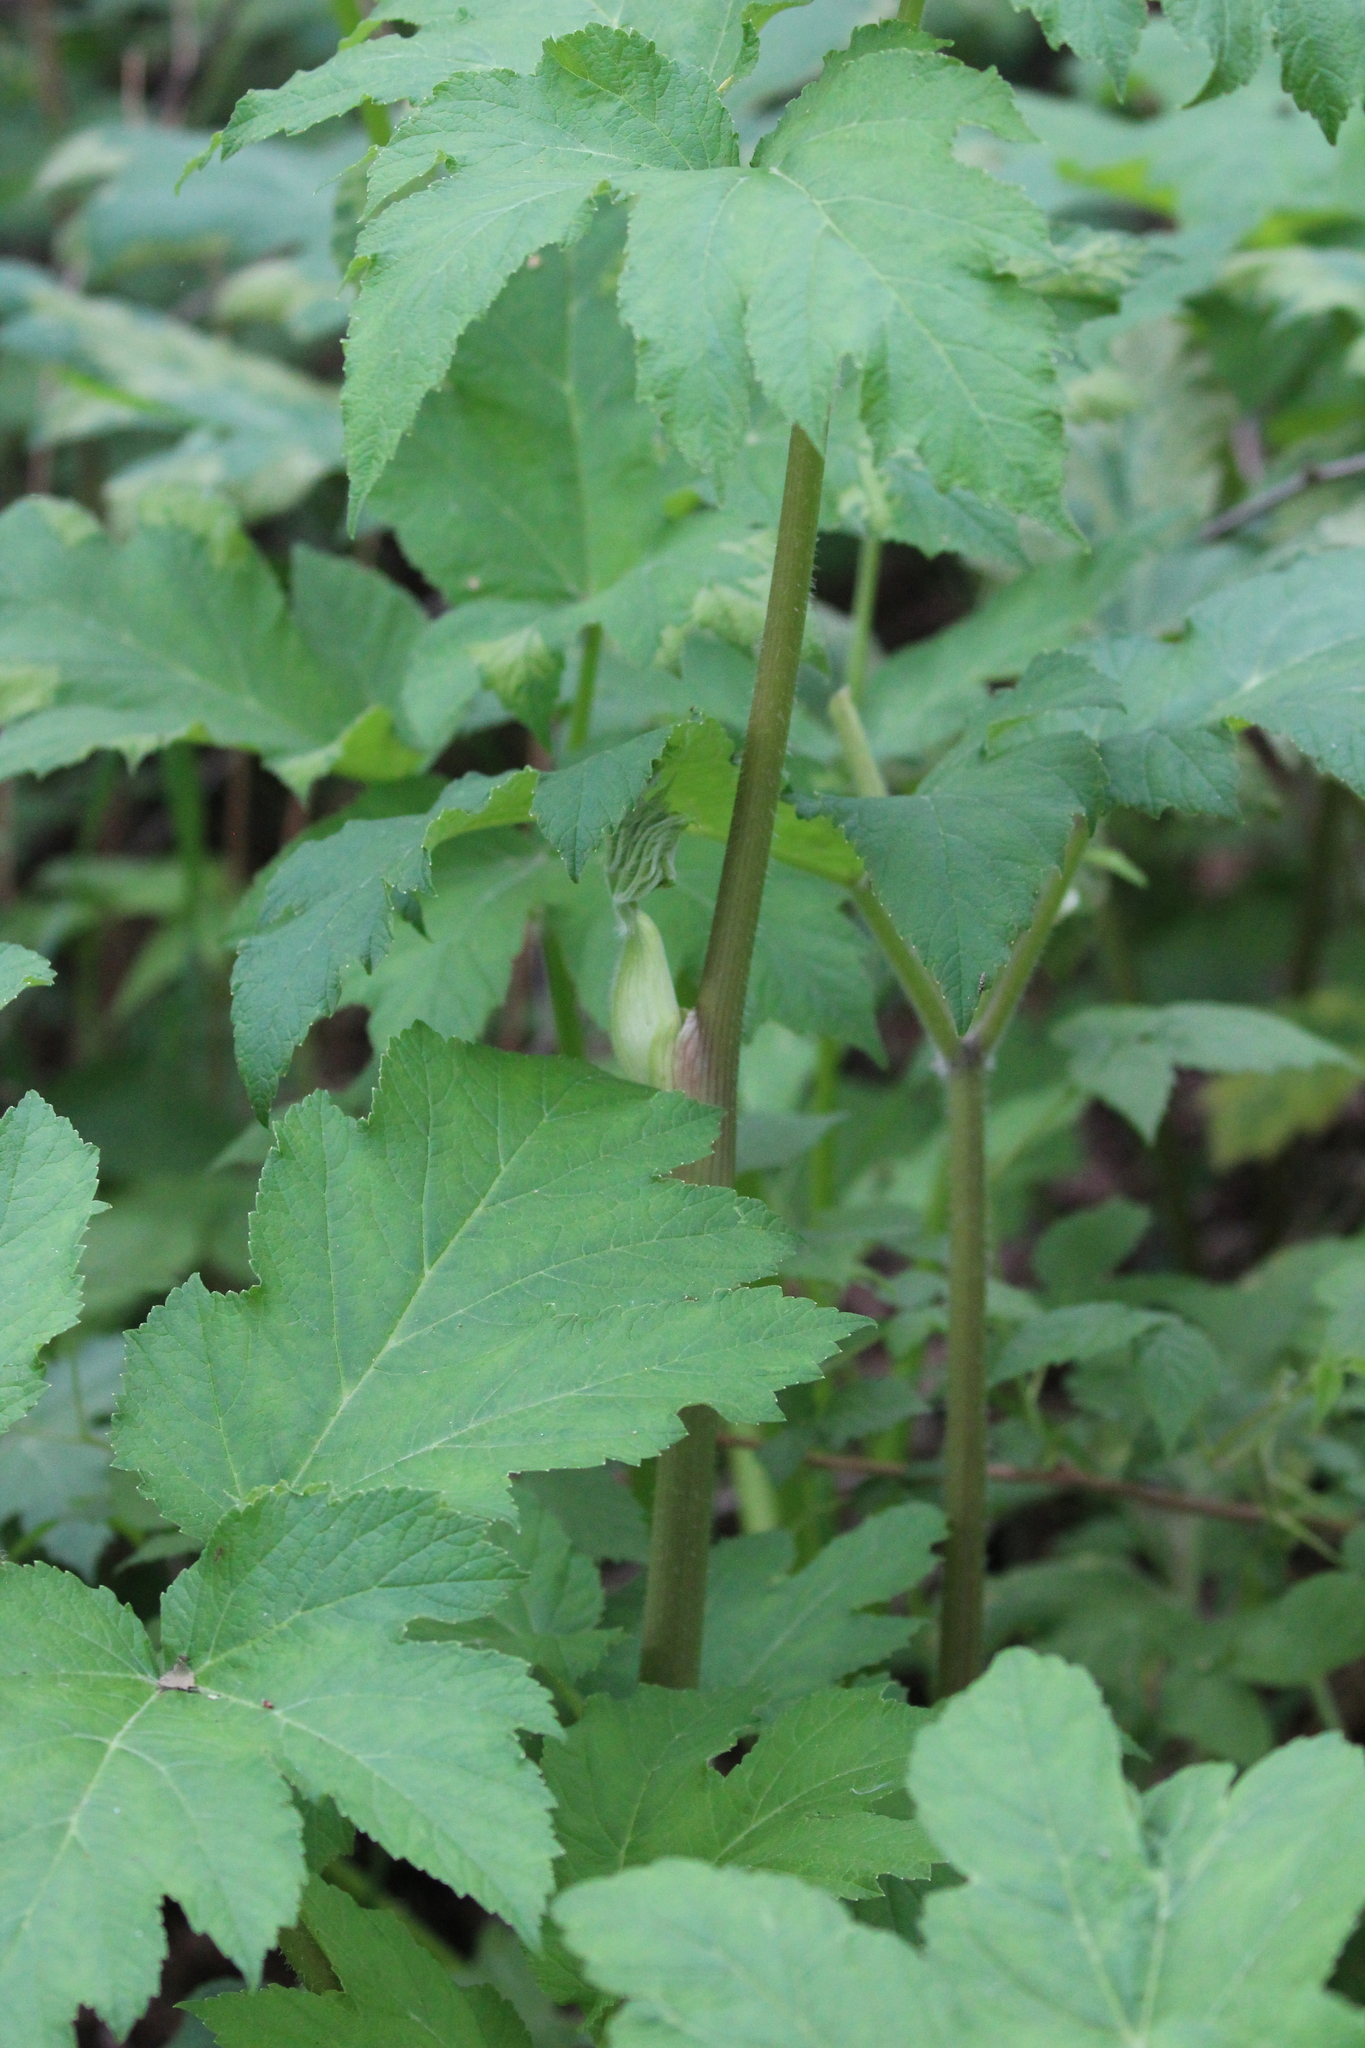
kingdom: Plantae
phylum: Tracheophyta
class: Magnoliopsida
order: Apiales
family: Apiaceae
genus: Heracleum
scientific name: Heracleum maximum
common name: American cow parsnip
